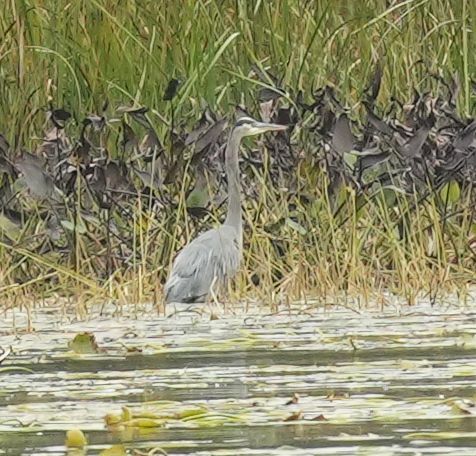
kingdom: Animalia
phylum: Chordata
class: Aves
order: Pelecaniformes
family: Ardeidae
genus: Ardea
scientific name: Ardea herodias
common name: Great blue heron
